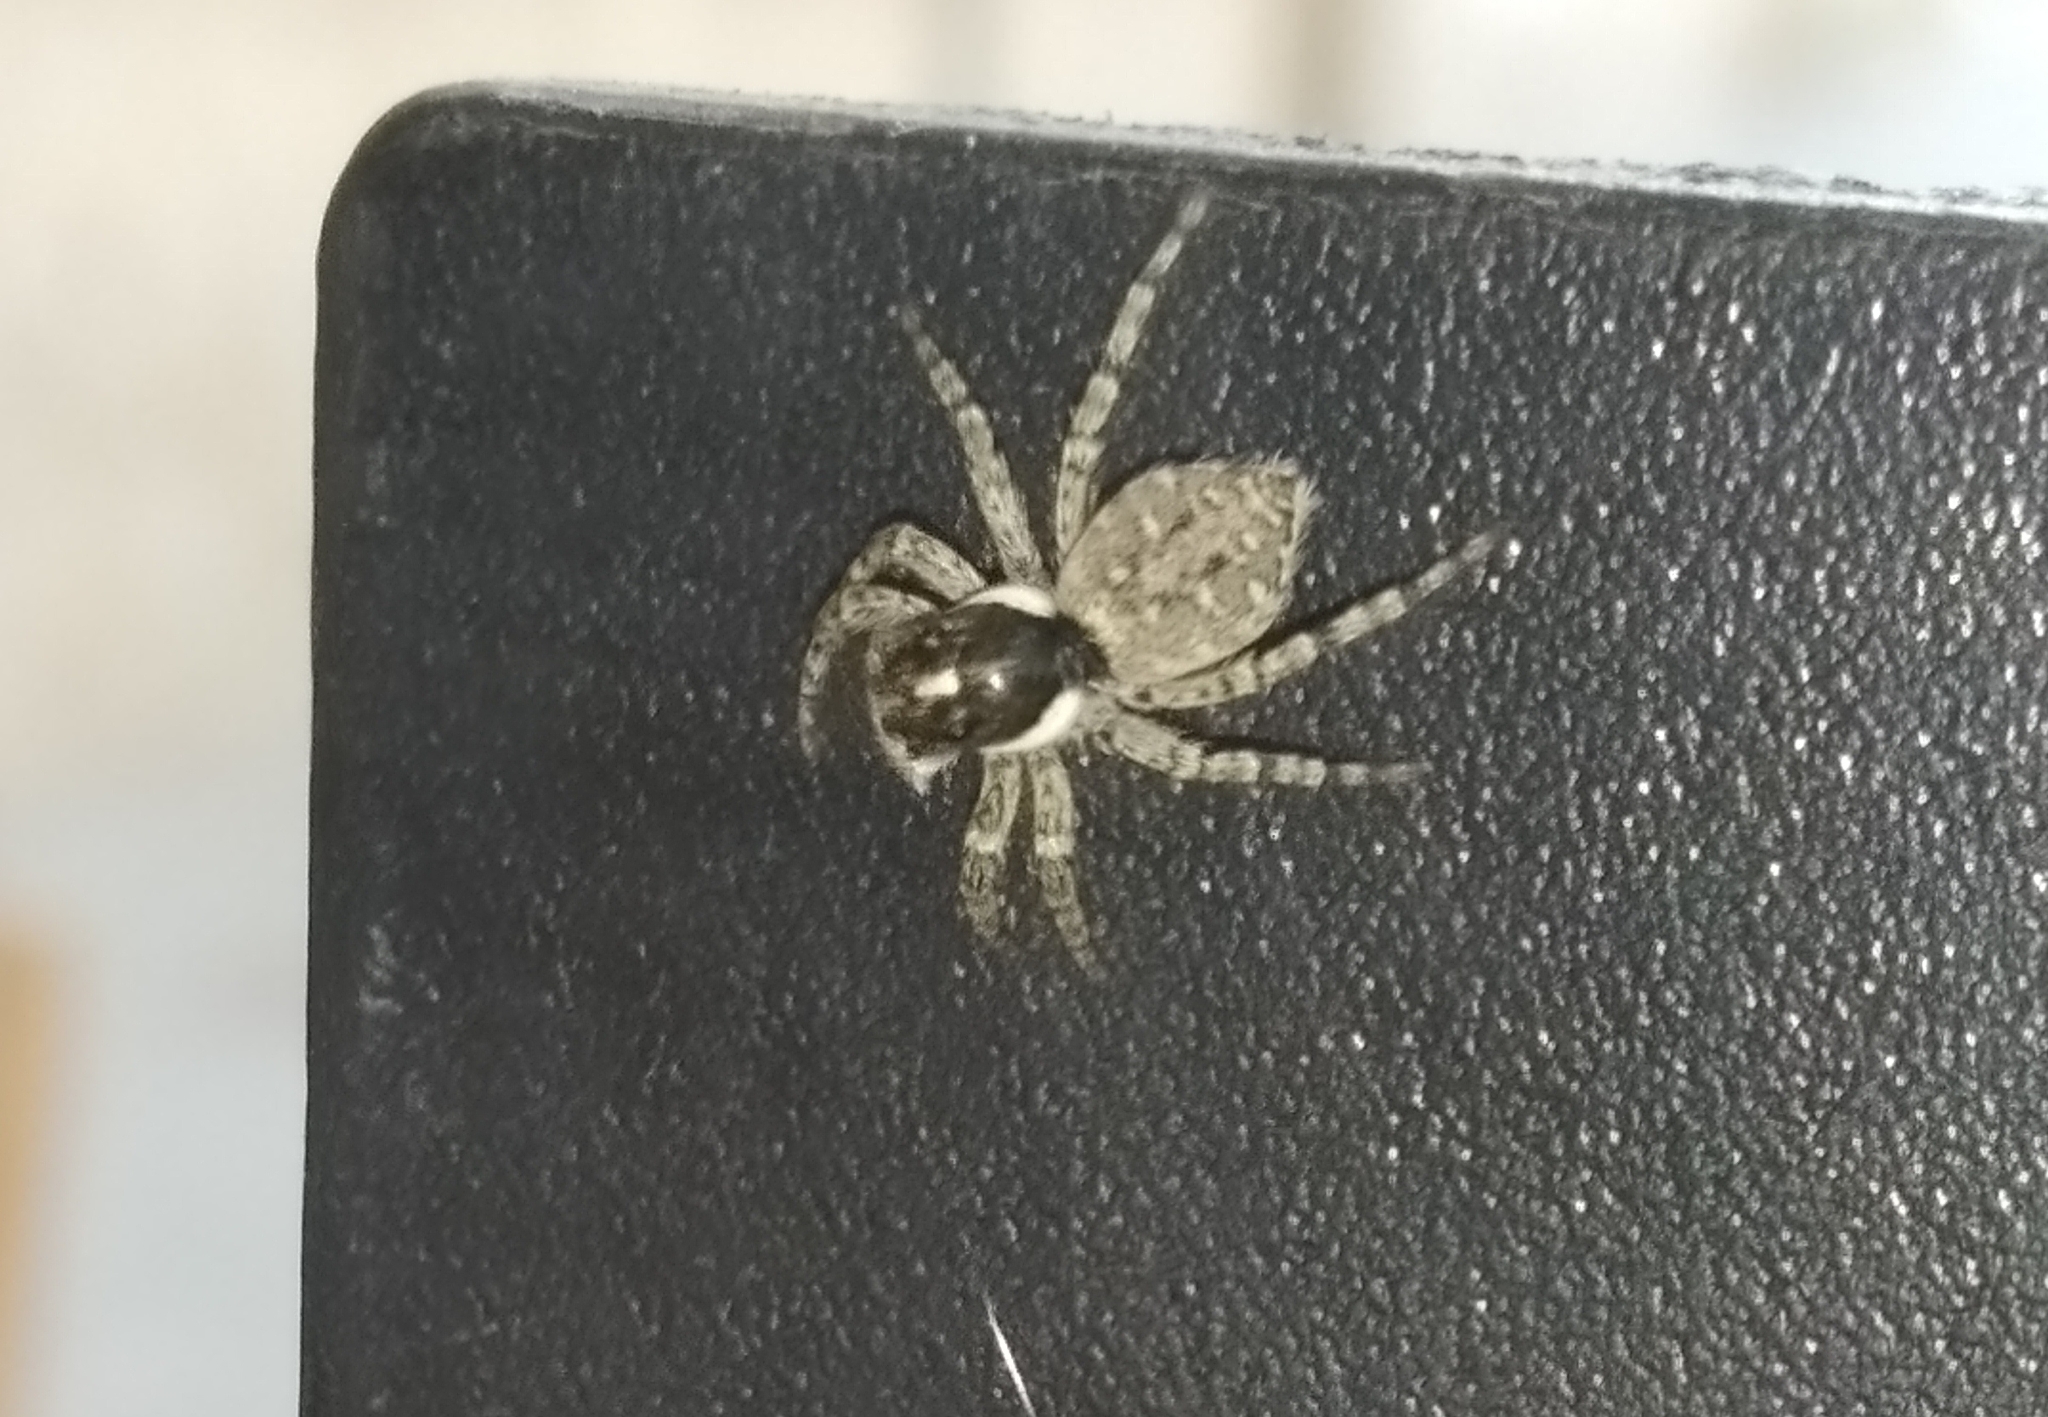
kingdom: Animalia
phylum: Arthropoda
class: Arachnida
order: Araneae
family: Salticidae
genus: Menemerus
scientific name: Menemerus semilimbatus
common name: Jumping spider
